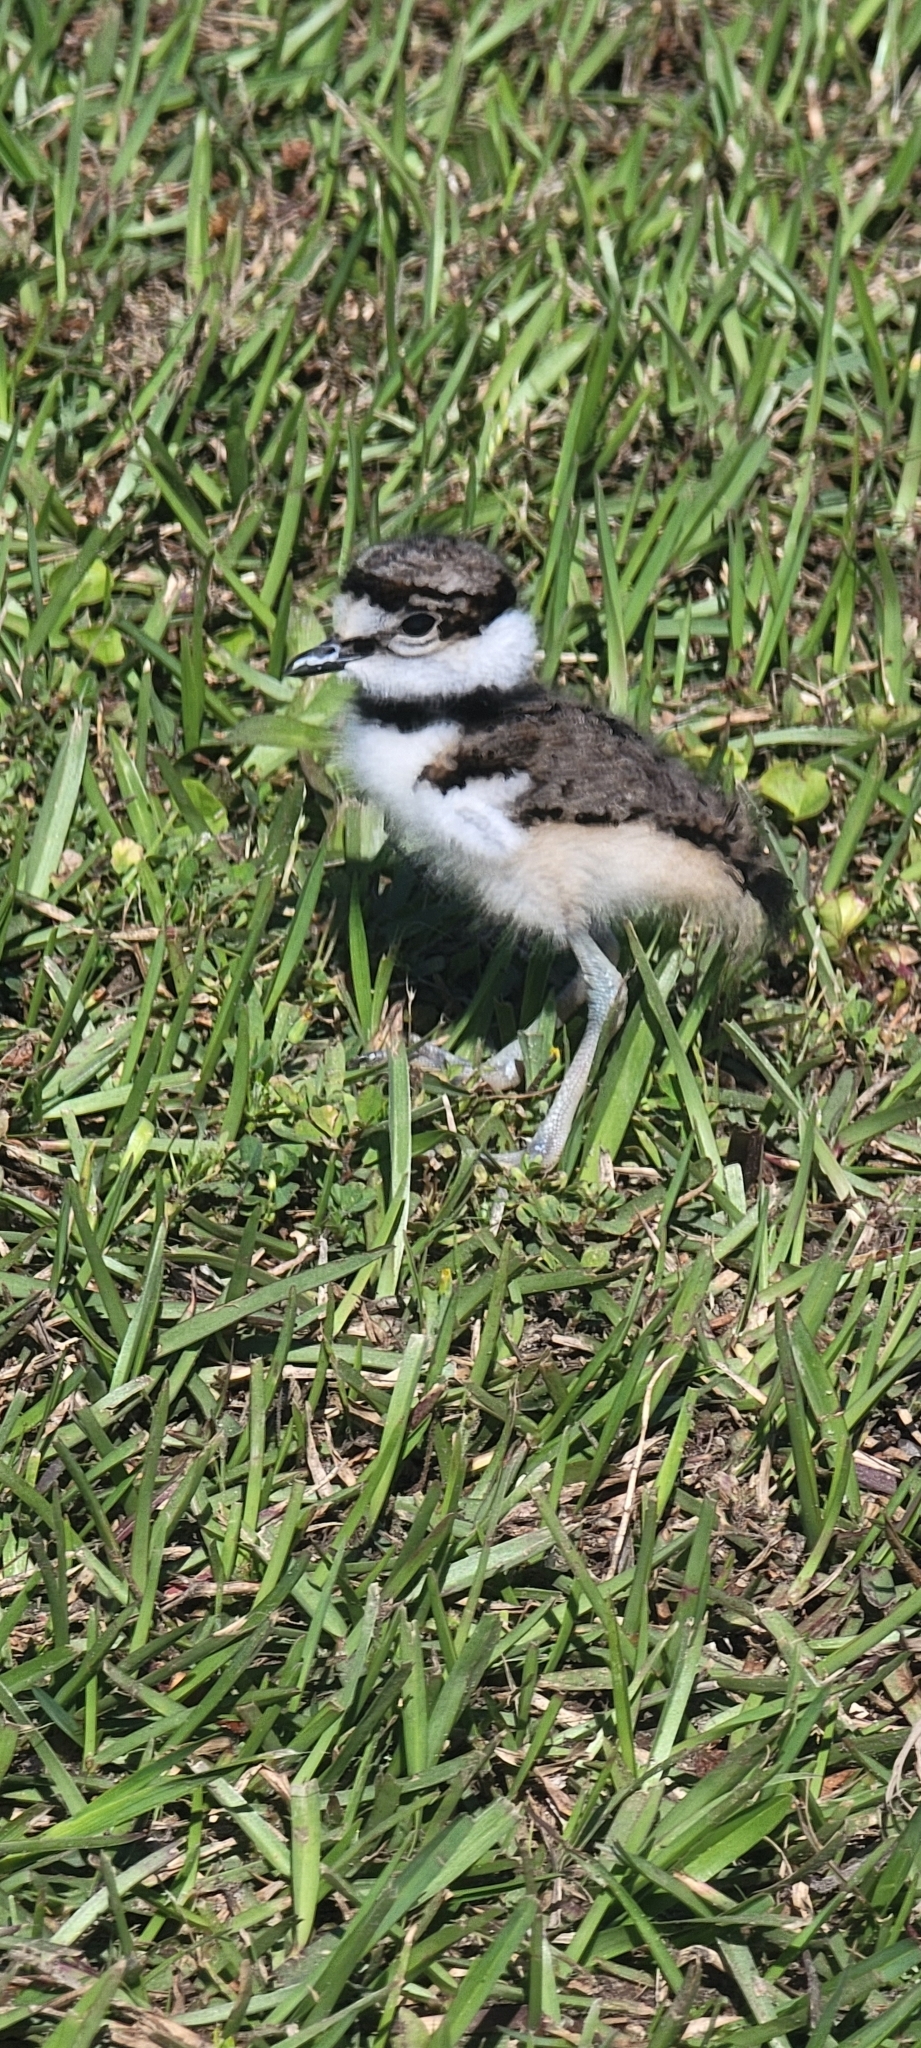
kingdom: Animalia
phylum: Chordata
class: Aves
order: Charadriiformes
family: Charadriidae
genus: Charadrius
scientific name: Charadrius vociferus
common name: Killdeer
